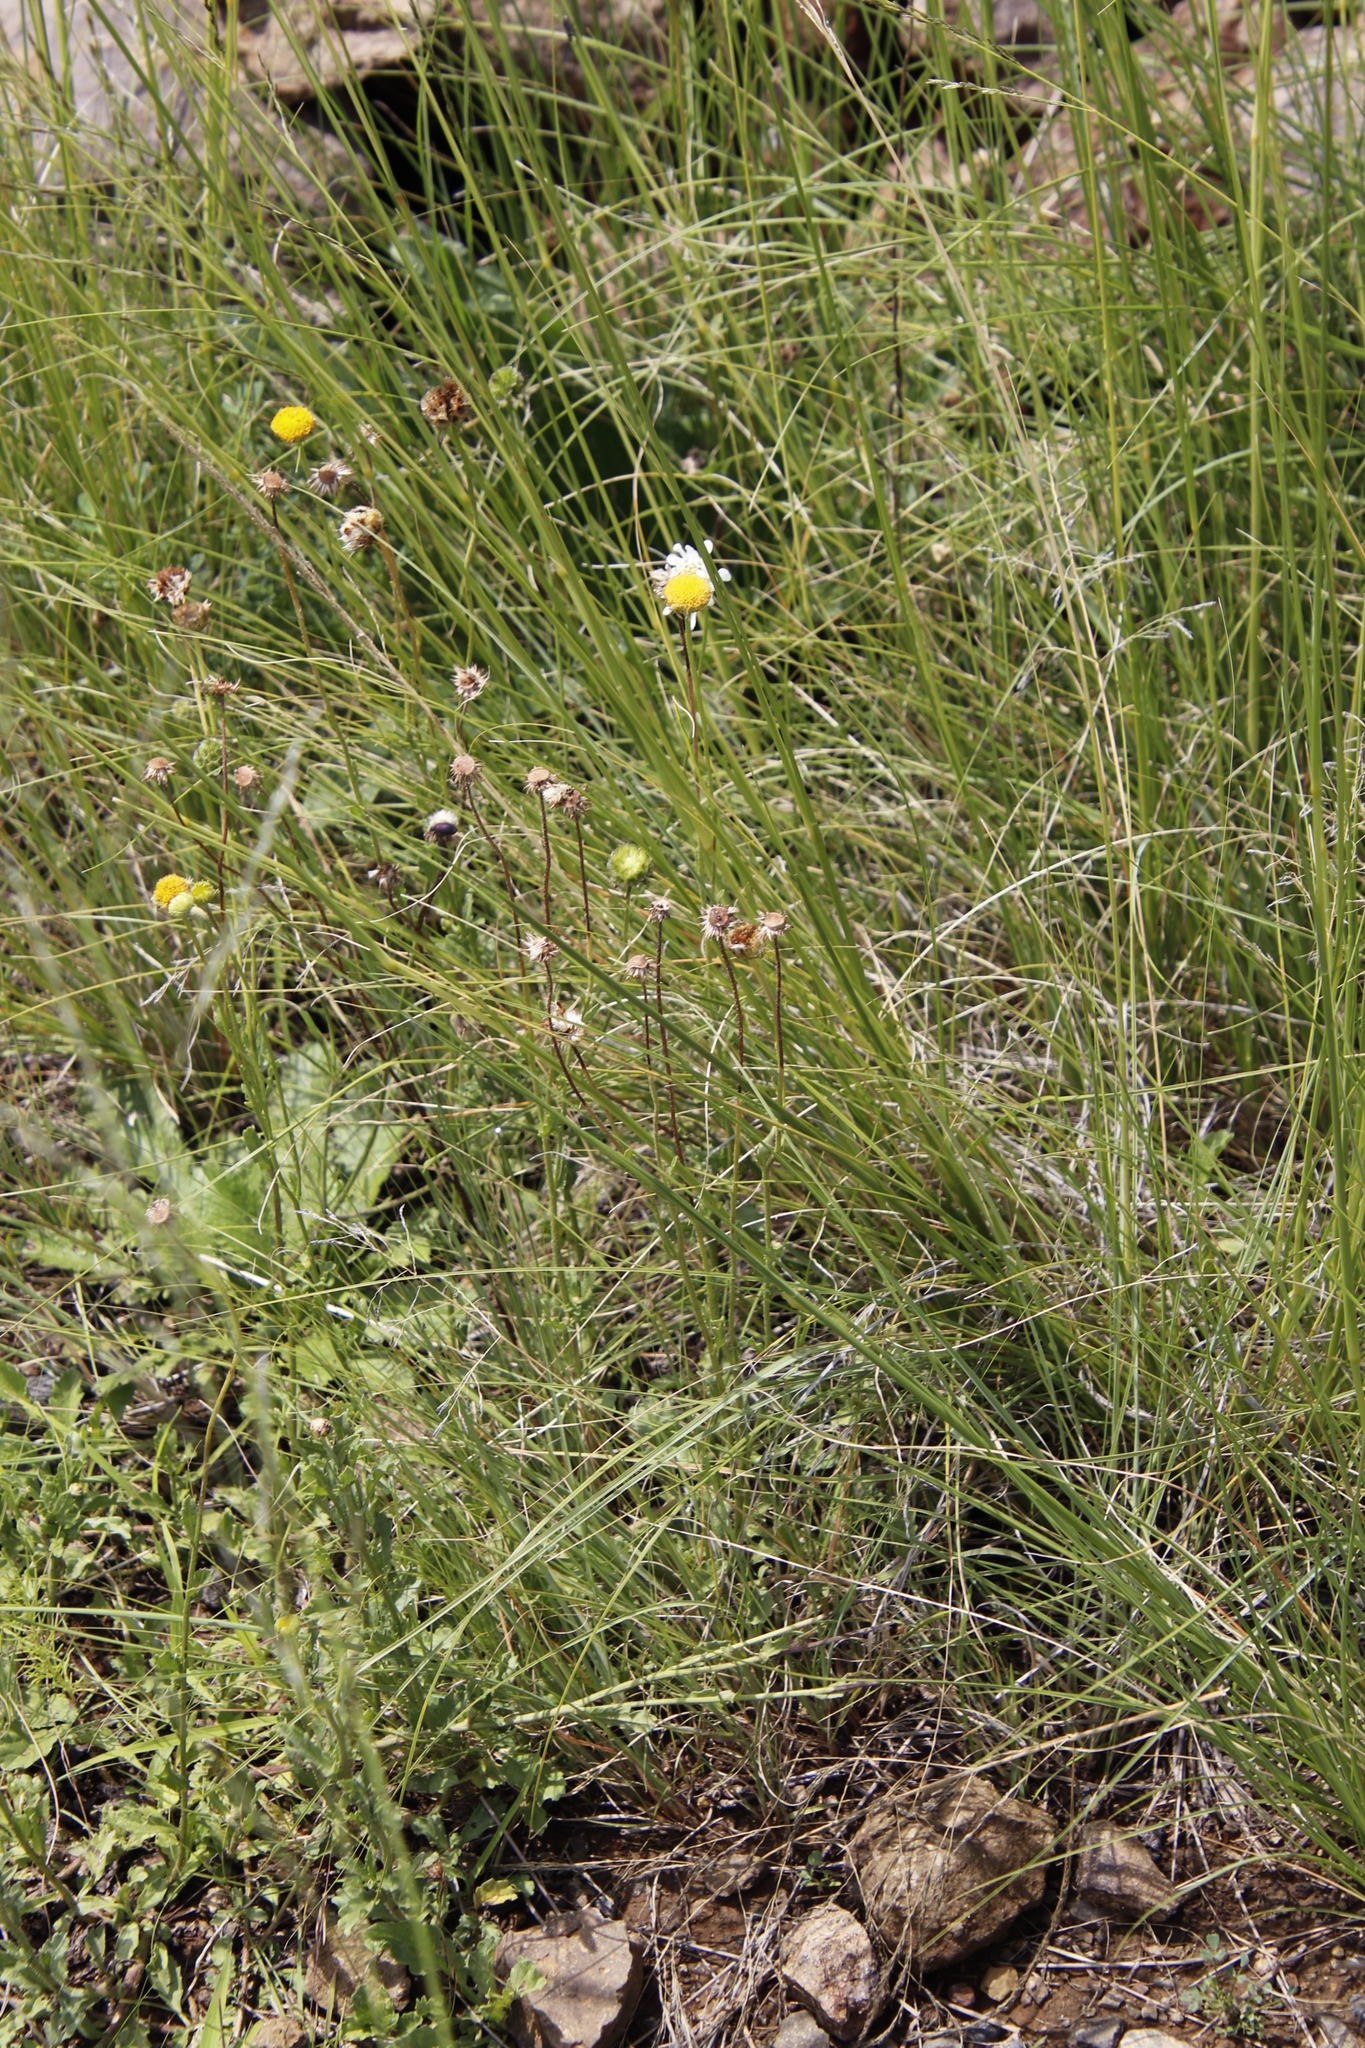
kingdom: Plantae
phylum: Tracheophyta
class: Magnoliopsida
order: Dipsacales
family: Caprifoliaceae
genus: Scabiosa
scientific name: Scabiosa columbaria
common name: Small scabious
